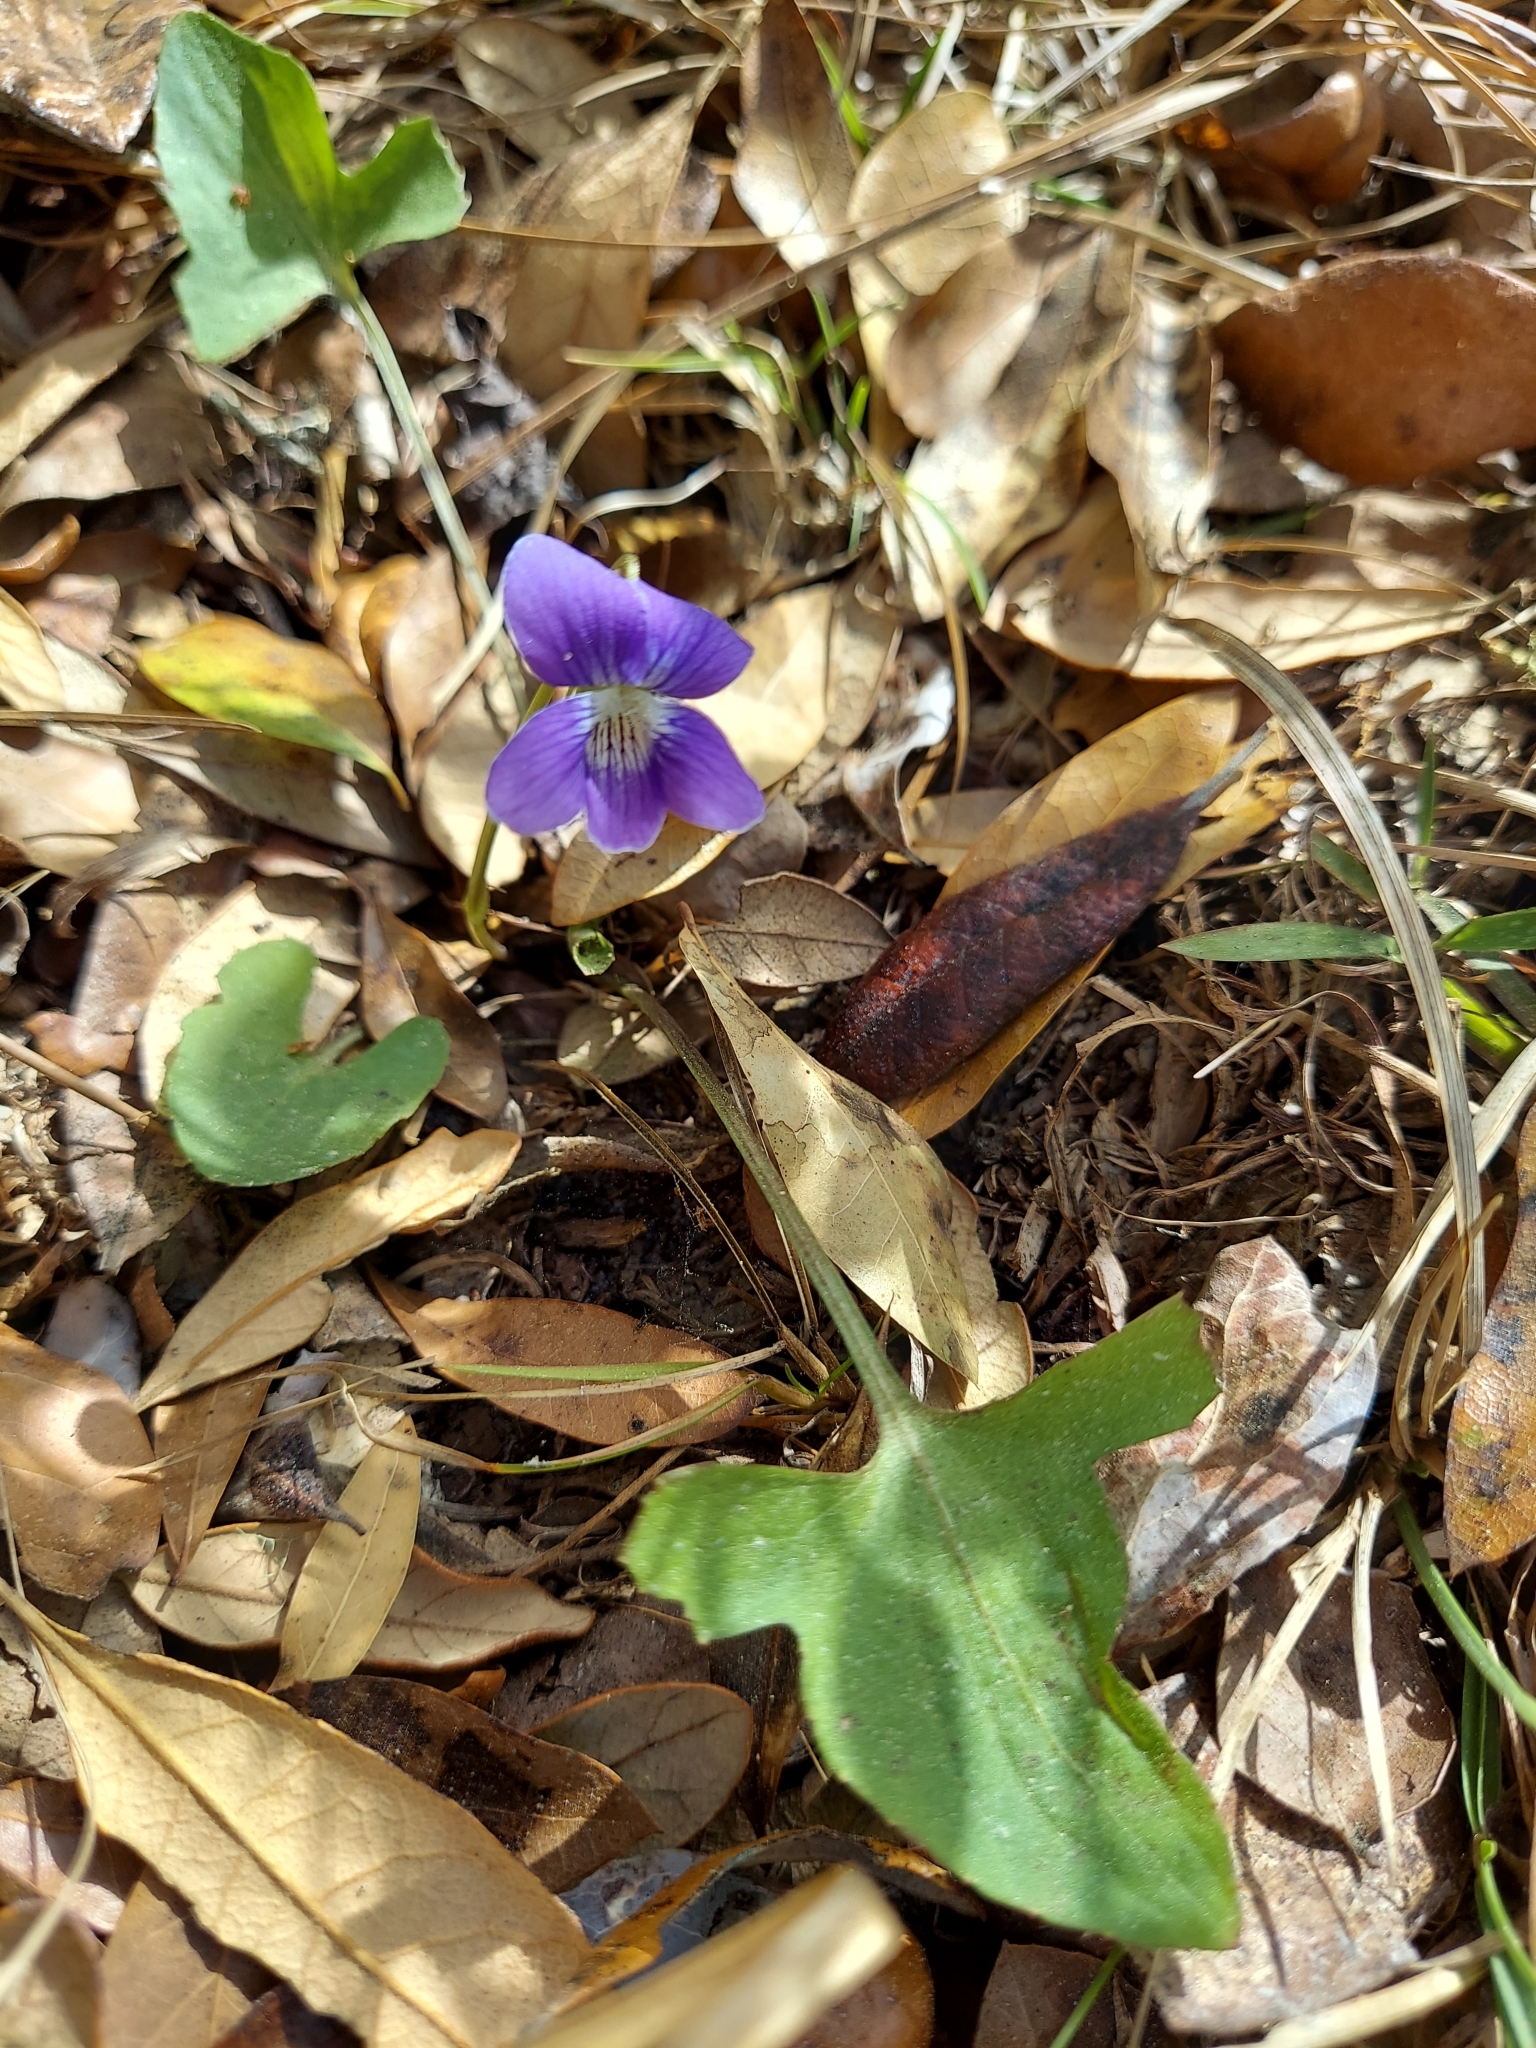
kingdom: Plantae
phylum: Tracheophyta
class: Magnoliopsida
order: Malpighiales
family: Violaceae
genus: Viola
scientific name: Viola palmata
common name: Early blue violet
